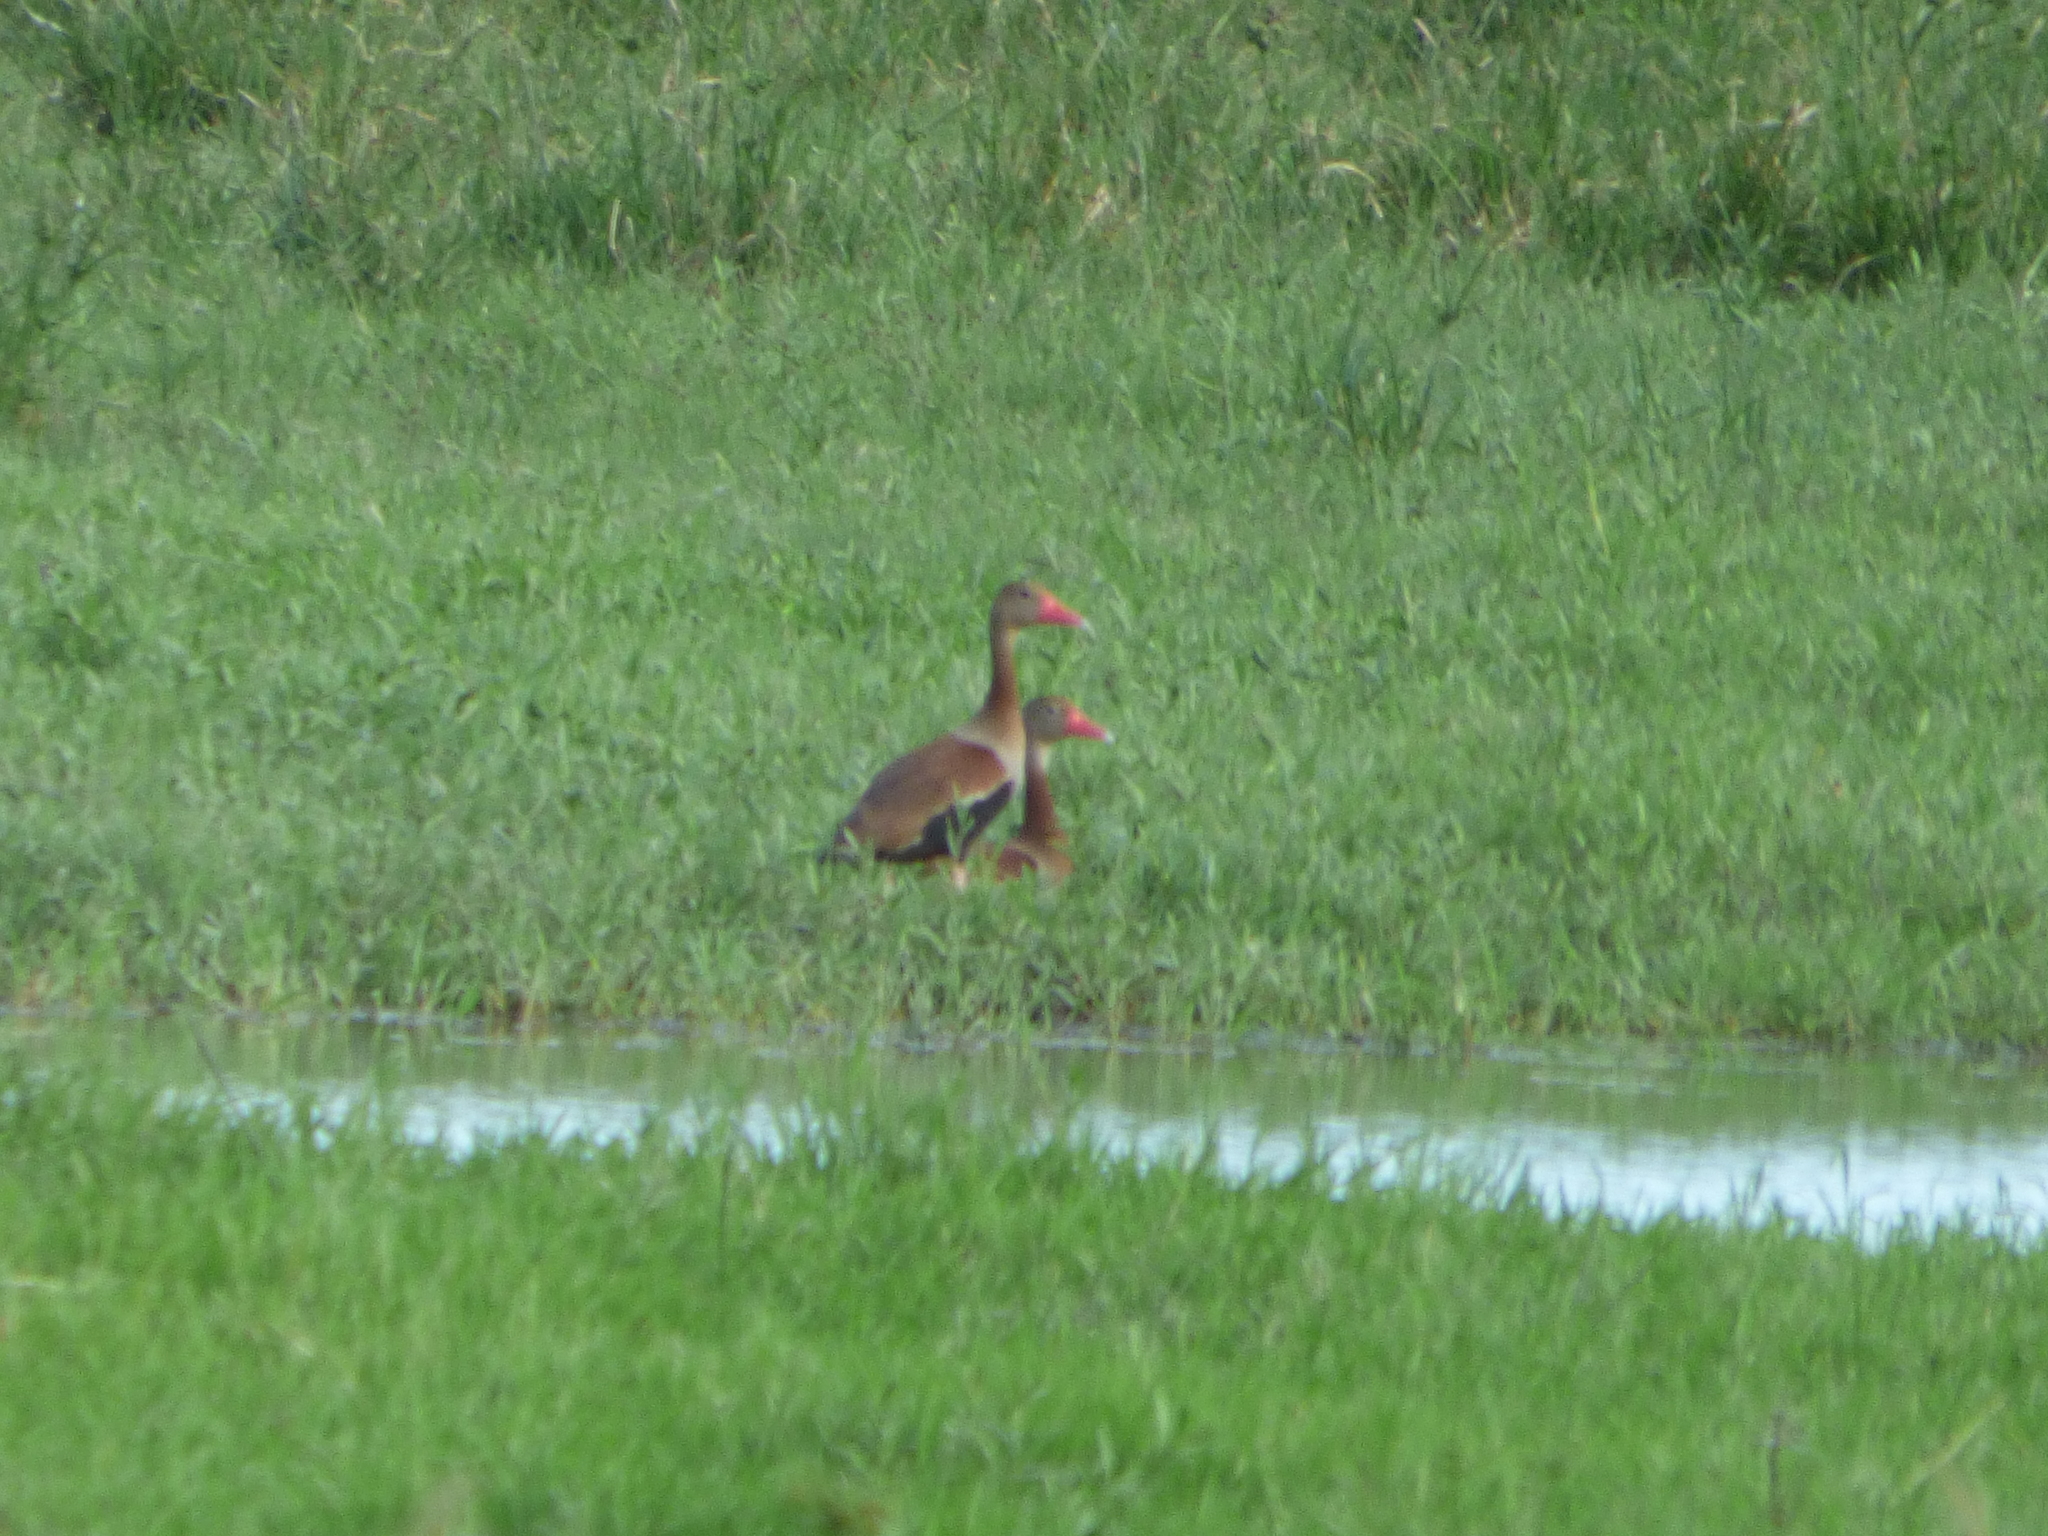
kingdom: Animalia
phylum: Chordata
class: Aves
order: Anseriformes
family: Anatidae
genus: Dendrocygna
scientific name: Dendrocygna autumnalis
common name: Black-bellied whistling duck
